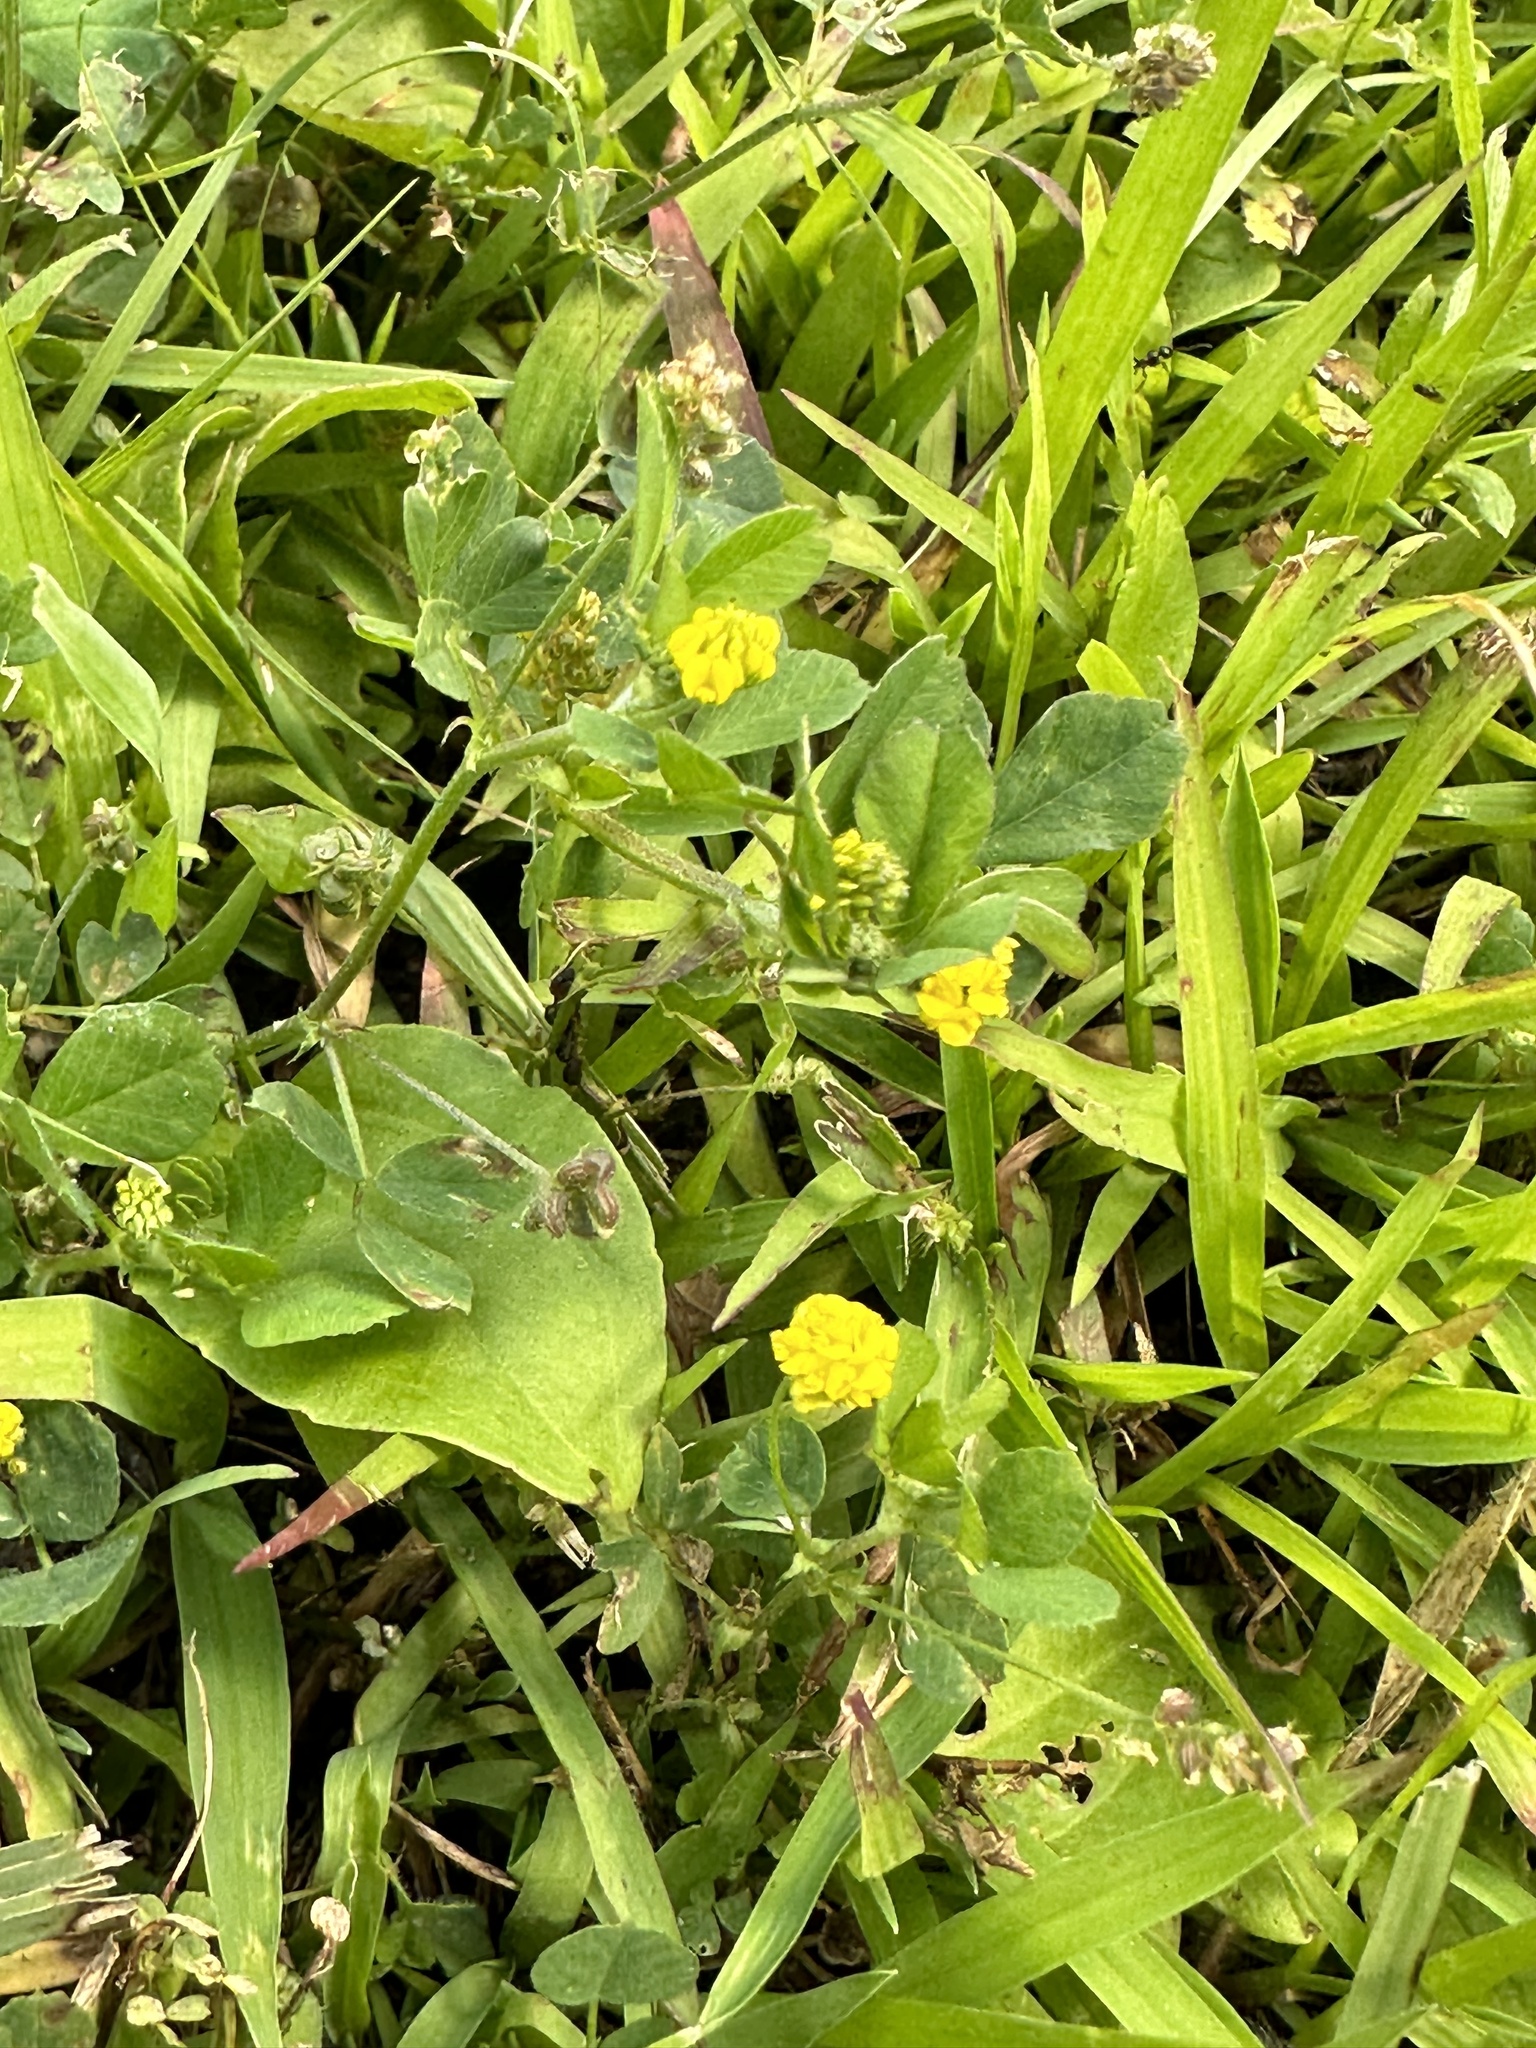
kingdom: Plantae
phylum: Tracheophyta
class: Magnoliopsida
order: Fabales
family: Fabaceae
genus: Medicago
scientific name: Medicago lupulina
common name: Black medick
